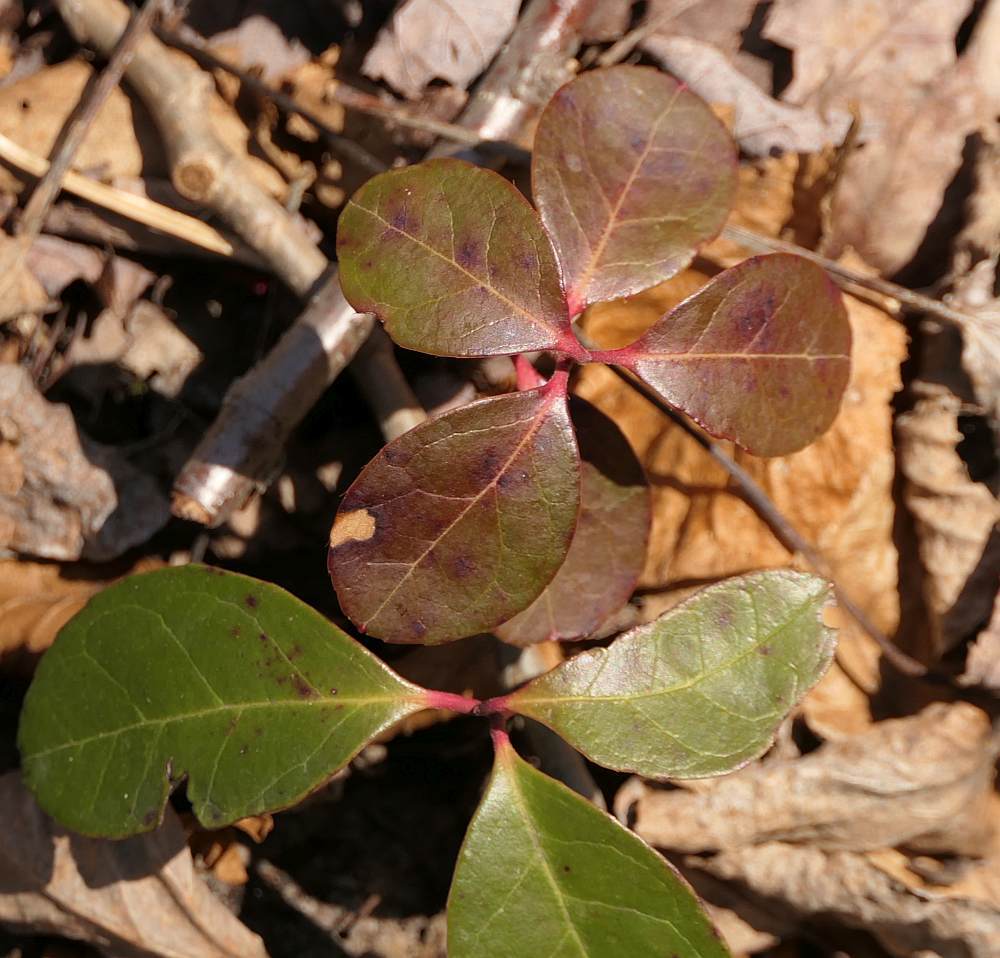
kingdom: Plantae
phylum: Tracheophyta
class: Magnoliopsida
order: Ericales
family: Ericaceae
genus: Gaultheria
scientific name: Gaultheria procumbens
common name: Checkerberry
